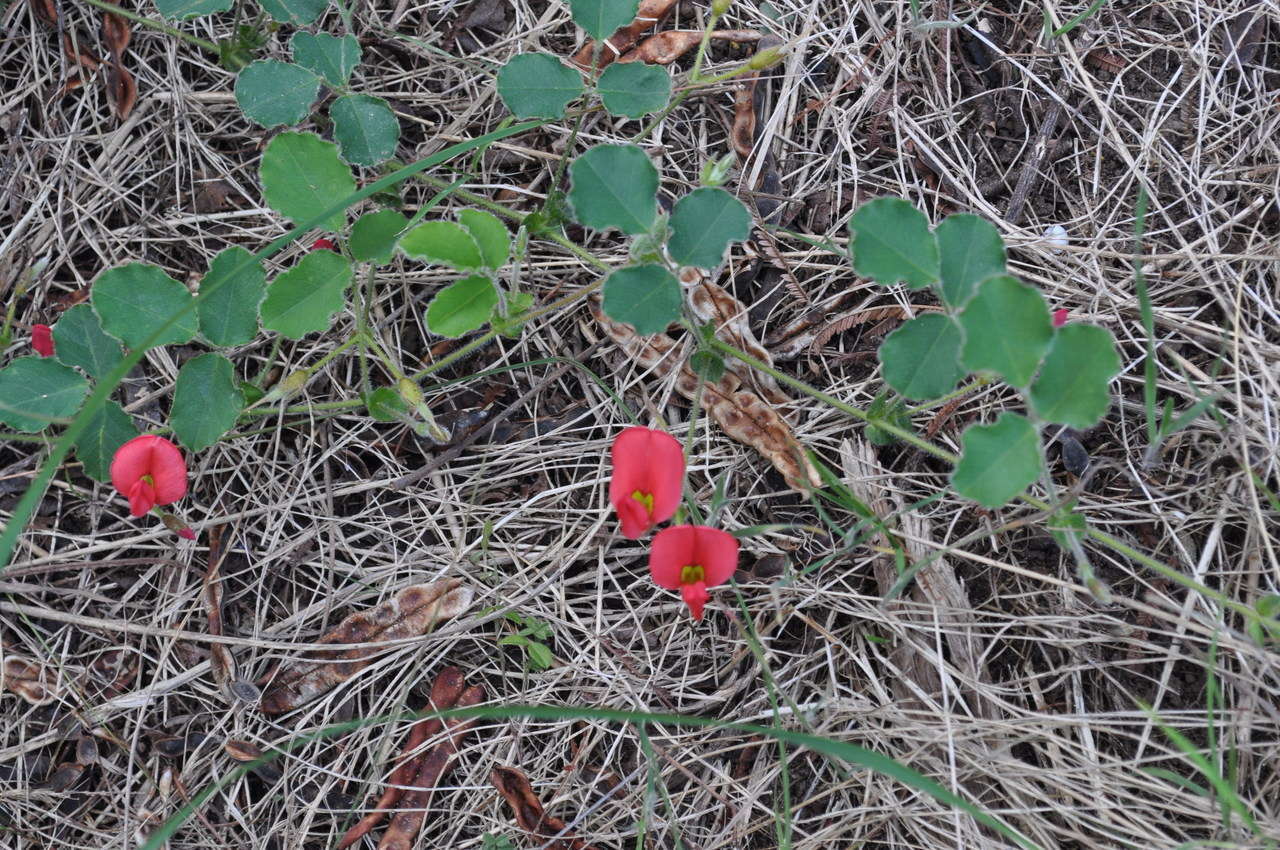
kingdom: Plantae
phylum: Tracheophyta
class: Magnoliopsida
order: Fabales
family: Fabaceae
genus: Kennedia
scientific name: Kennedia prostrata
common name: Running-postman
